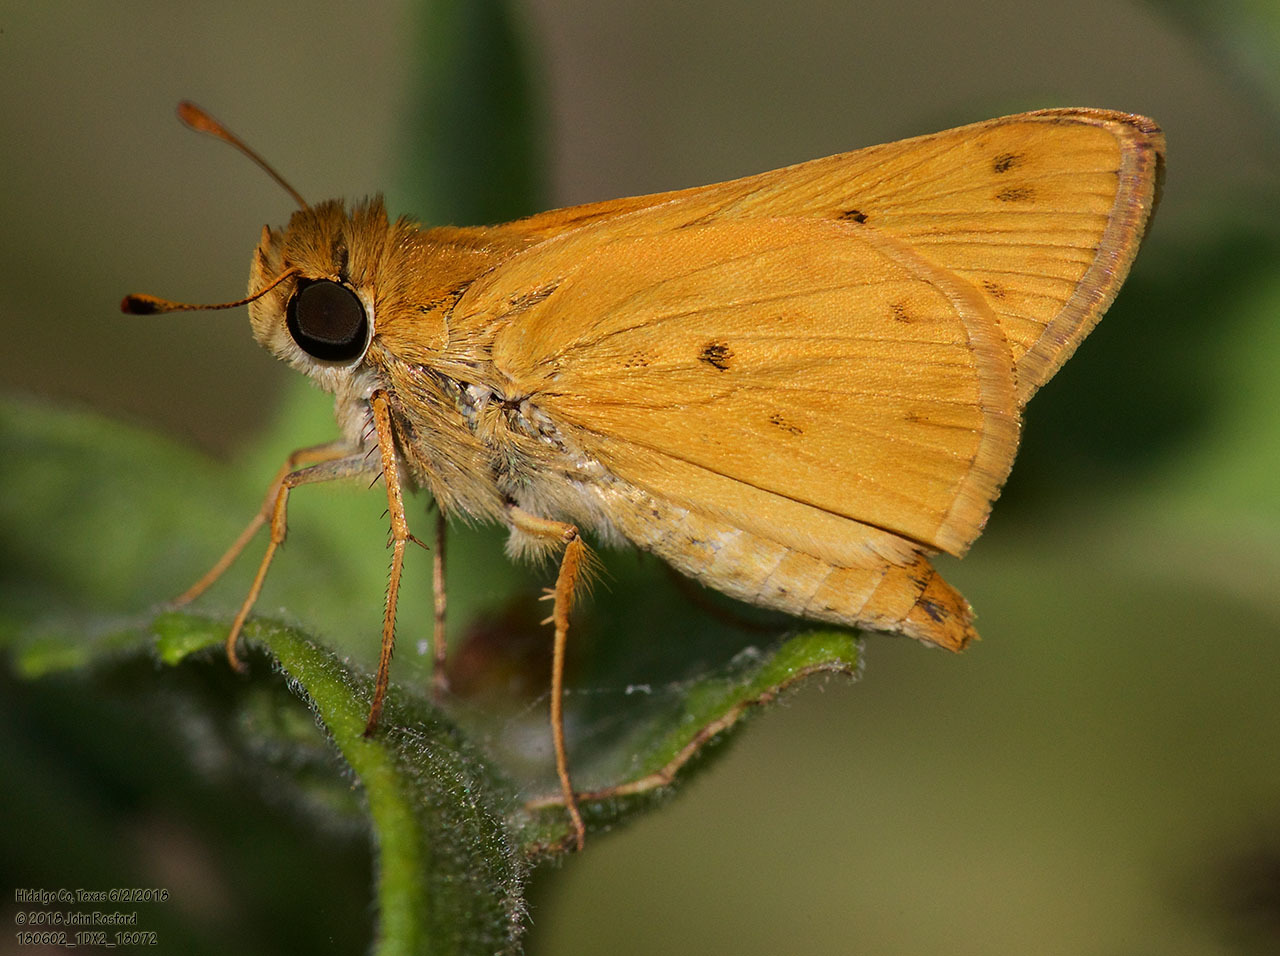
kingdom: Animalia
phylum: Arthropoda
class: Insecta
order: Lepidoptera
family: Hesperiidae
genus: Hylephila
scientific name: Hylephila phyleus
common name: Fiery skipper
